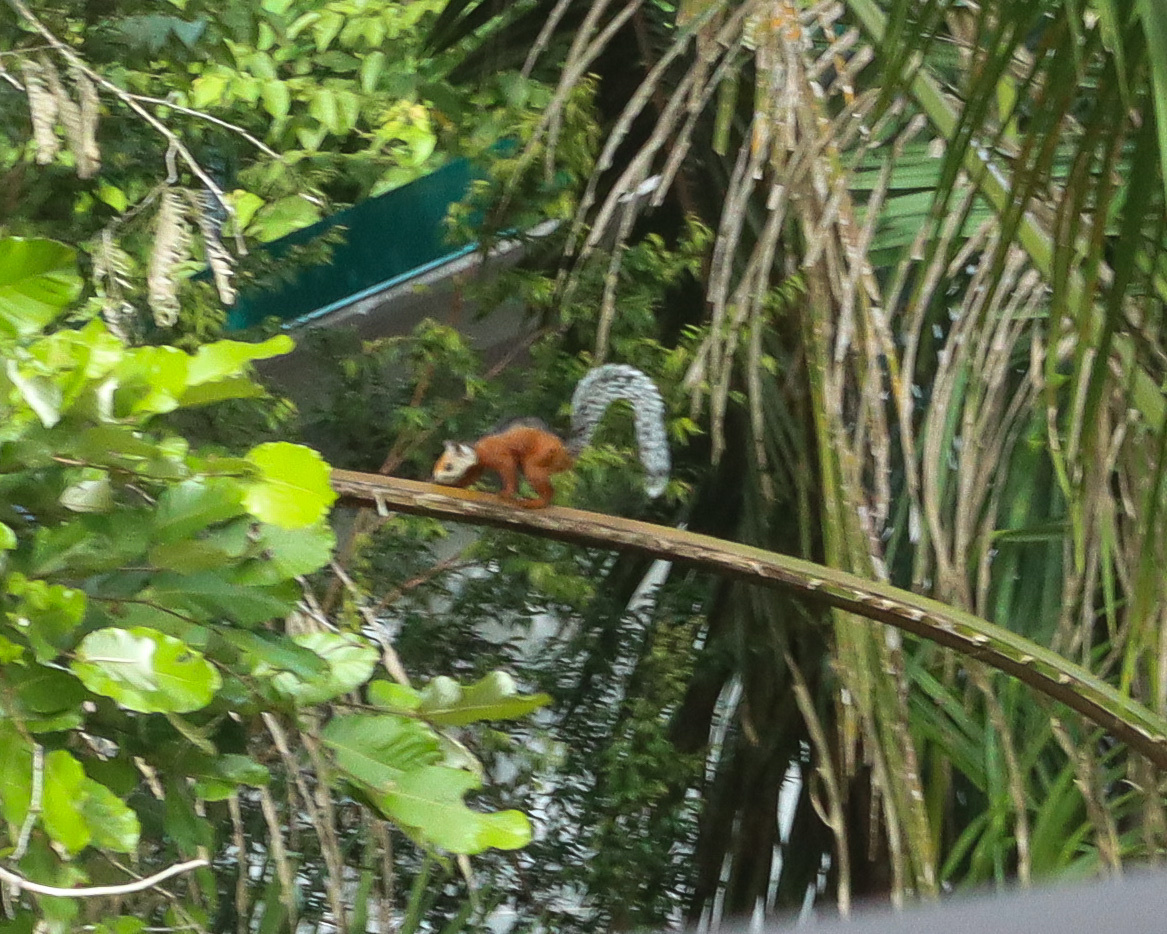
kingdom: Animalia
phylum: Chordata
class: Mammalia
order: Rodentia
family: Sciuridae
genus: Sciurus
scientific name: Sciurus variegatoides
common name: Variegated squirrel
